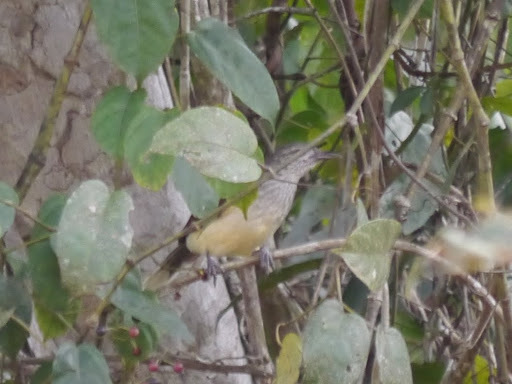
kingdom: Animalia
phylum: Chordata
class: Aves
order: Passeriformes
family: Pycnonotidae
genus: Thescelocichla
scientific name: Thescelocichla leucopleura
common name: Swamp palm bulbul
